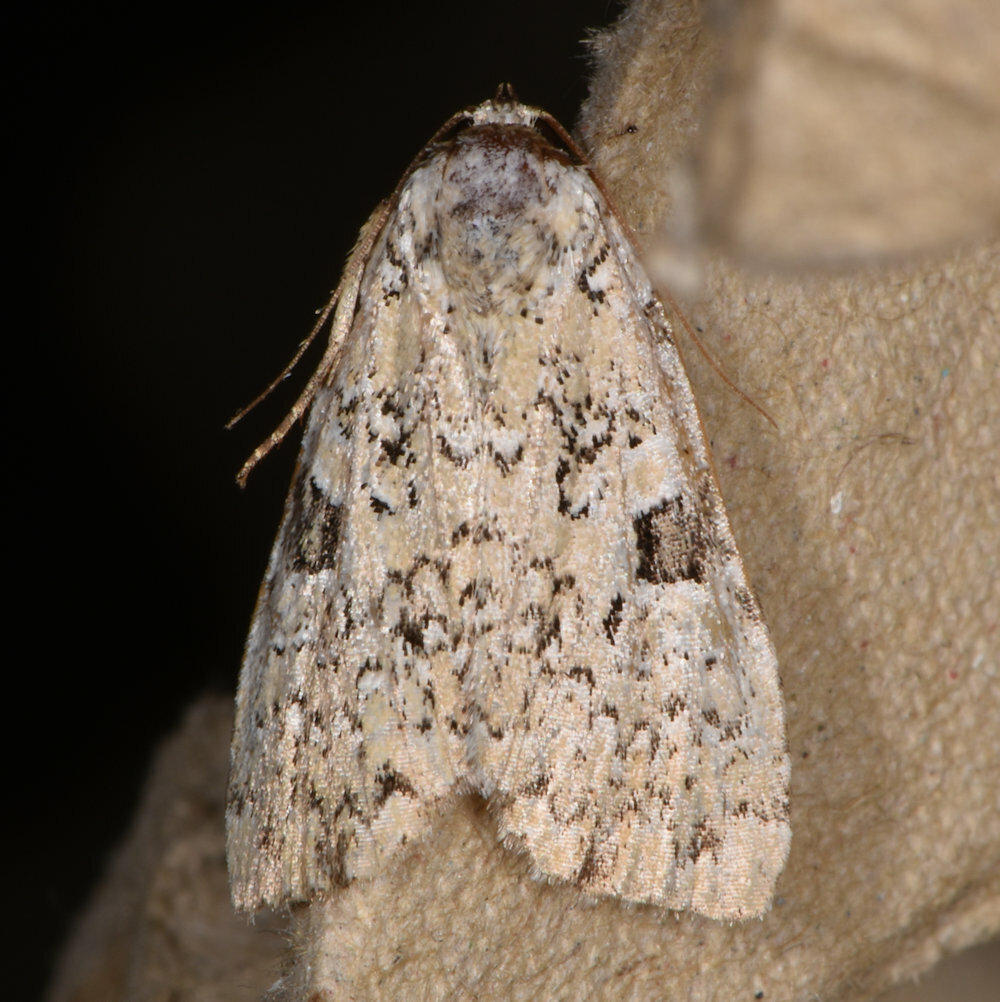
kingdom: Animalia
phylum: Arthropoda
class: Insecta
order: Lepidoptera
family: Noctuidae
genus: Leuconycta
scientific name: Leuconycta diphteroides
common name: Green leuconycta moth
